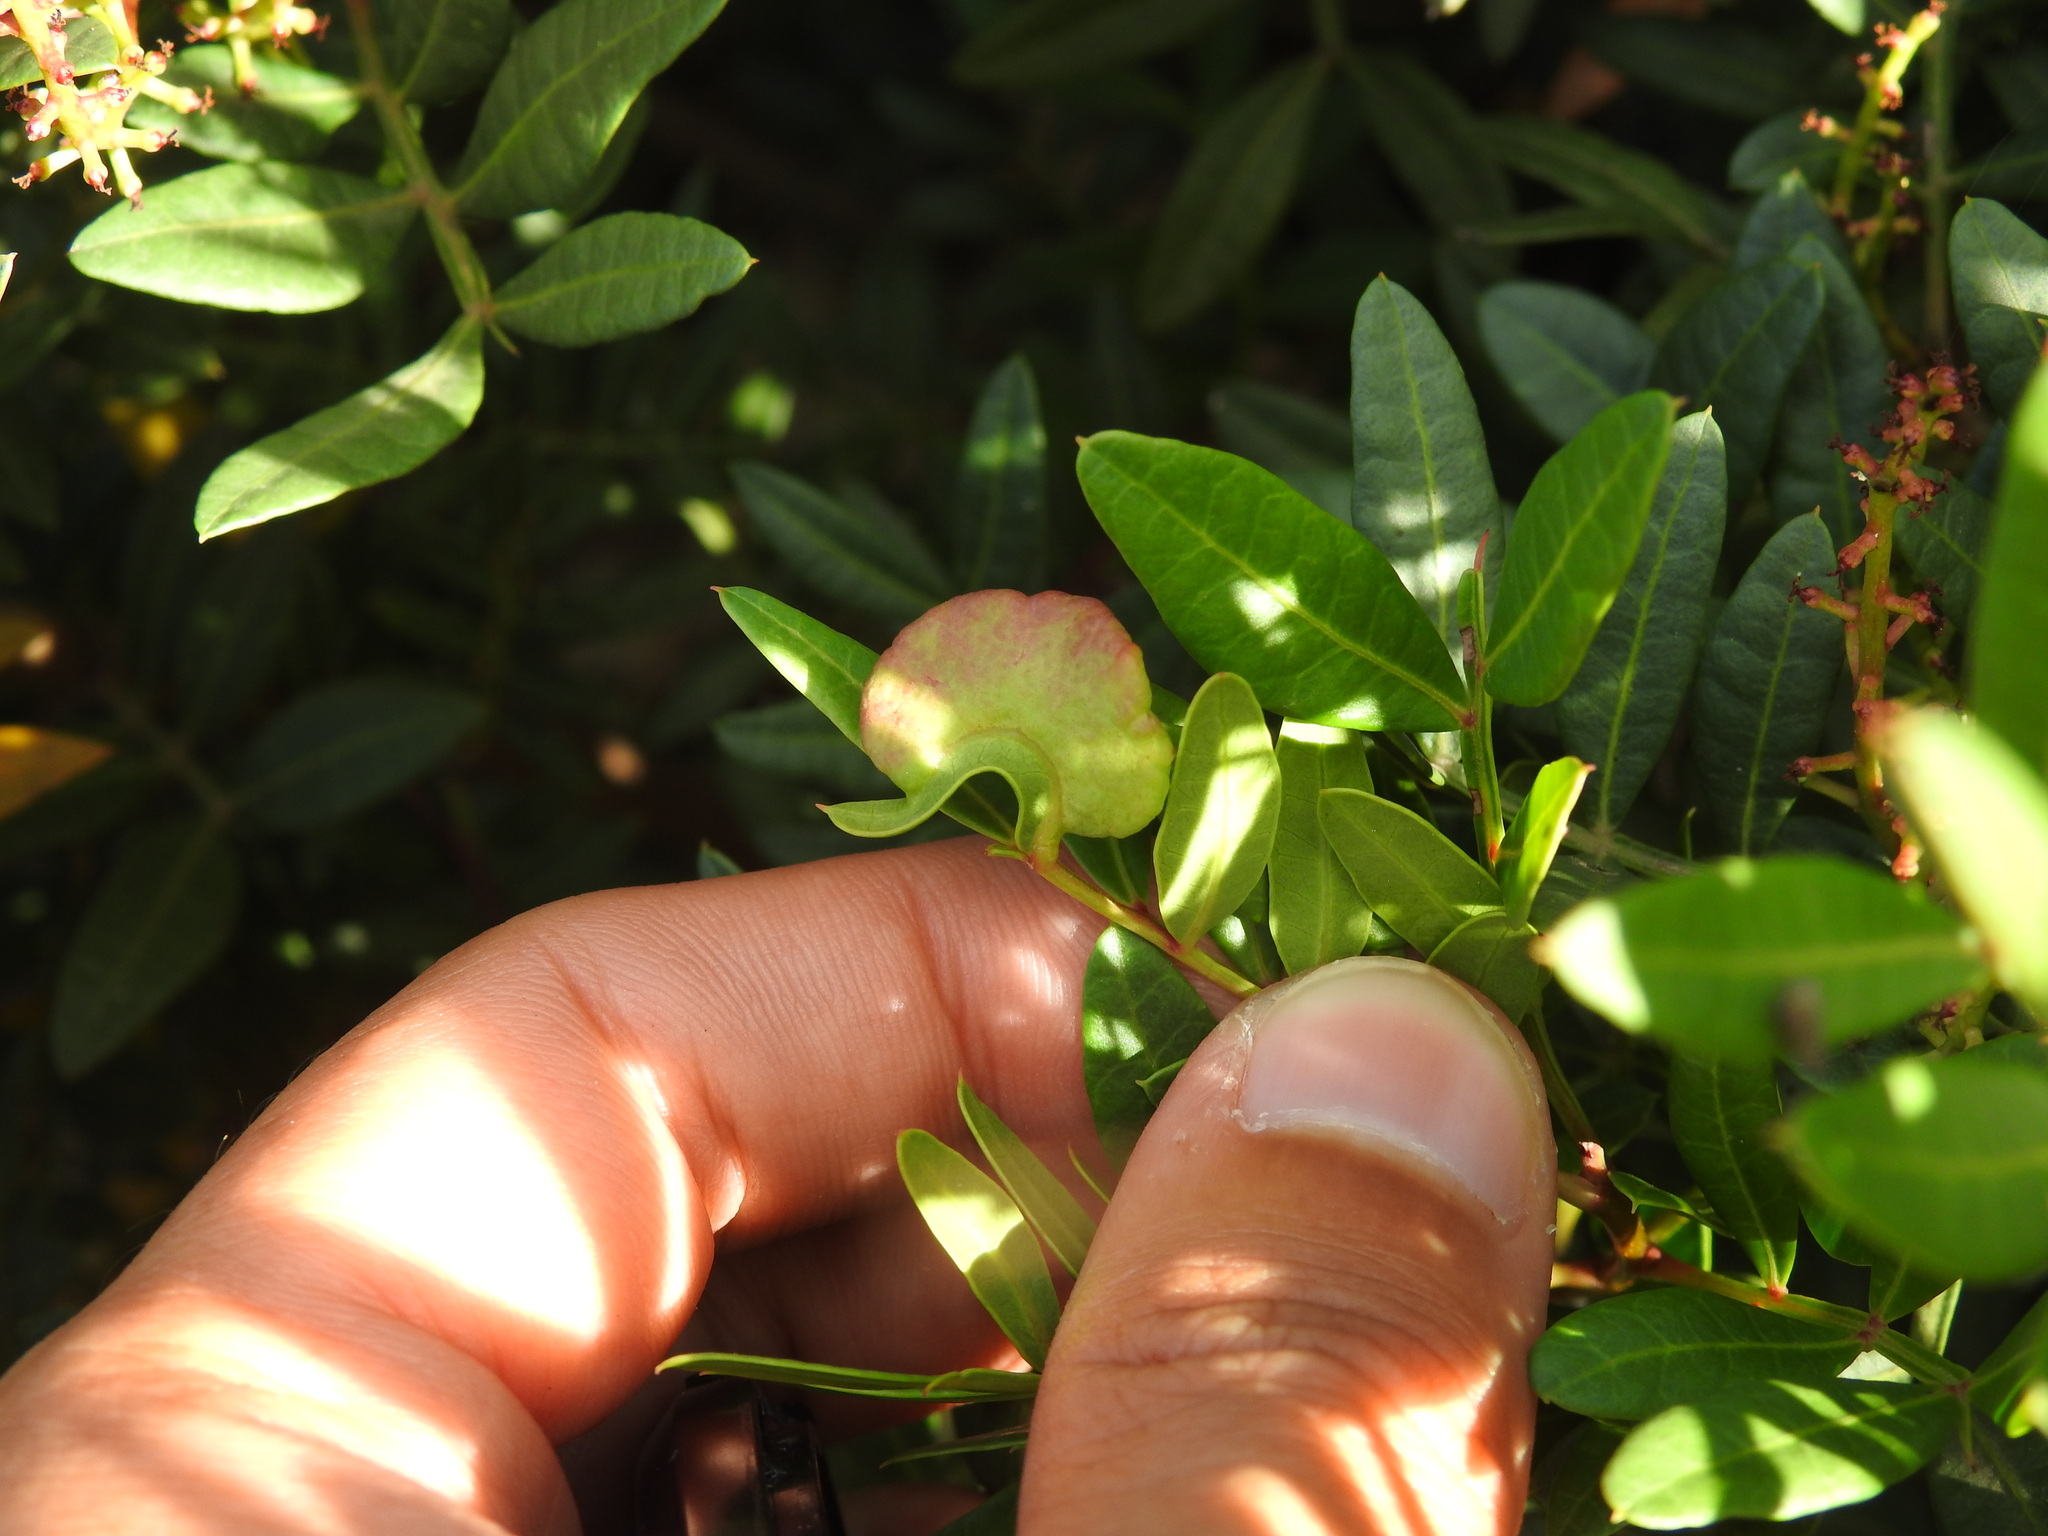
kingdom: Animalia
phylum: Arthropoda
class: Insecta
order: Hemiptera
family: Aphididae
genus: Aploneura
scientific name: Aploneura lentisci
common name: Mealy grass root aphid
